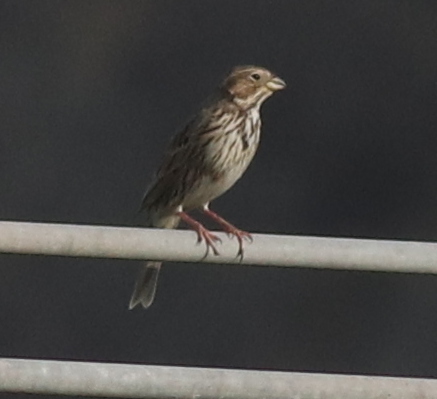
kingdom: Animalia
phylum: Chordata
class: Aves
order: Passeriformes
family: Emberizidae
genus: Emberiza
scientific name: Emberiza calandra
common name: Corn bunting
